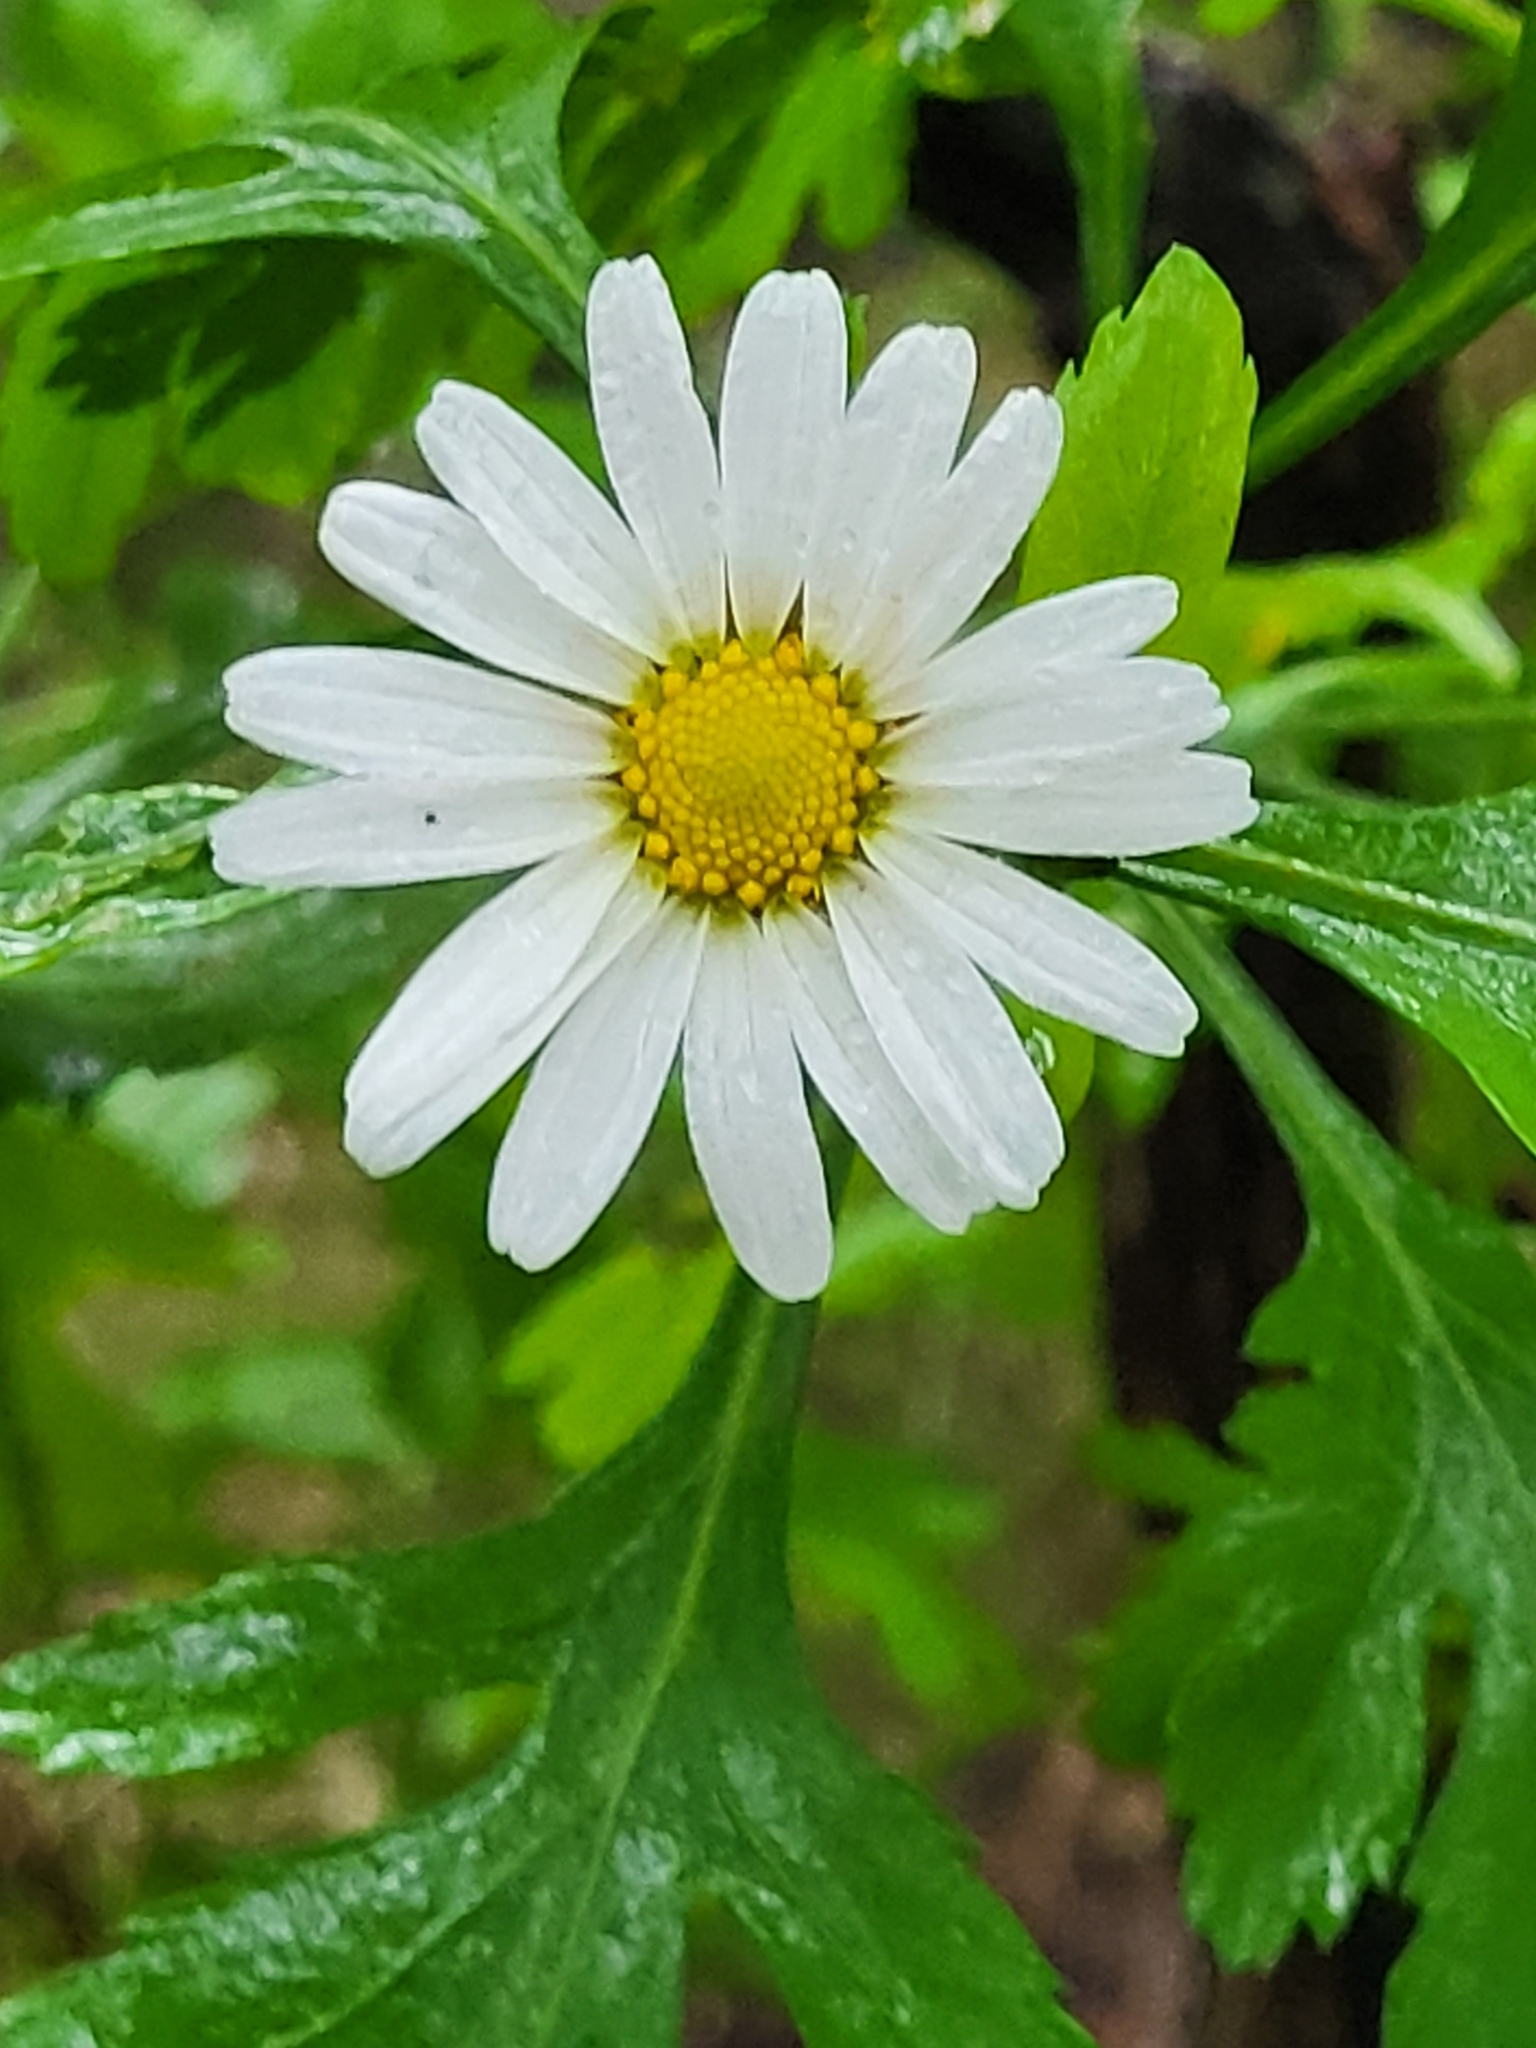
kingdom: Plantae
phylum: Tracheophyta
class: Magnoliopsida
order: Asterales
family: Asteraceae
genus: Argyranthemum
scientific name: Argyranthemum callichrysum
